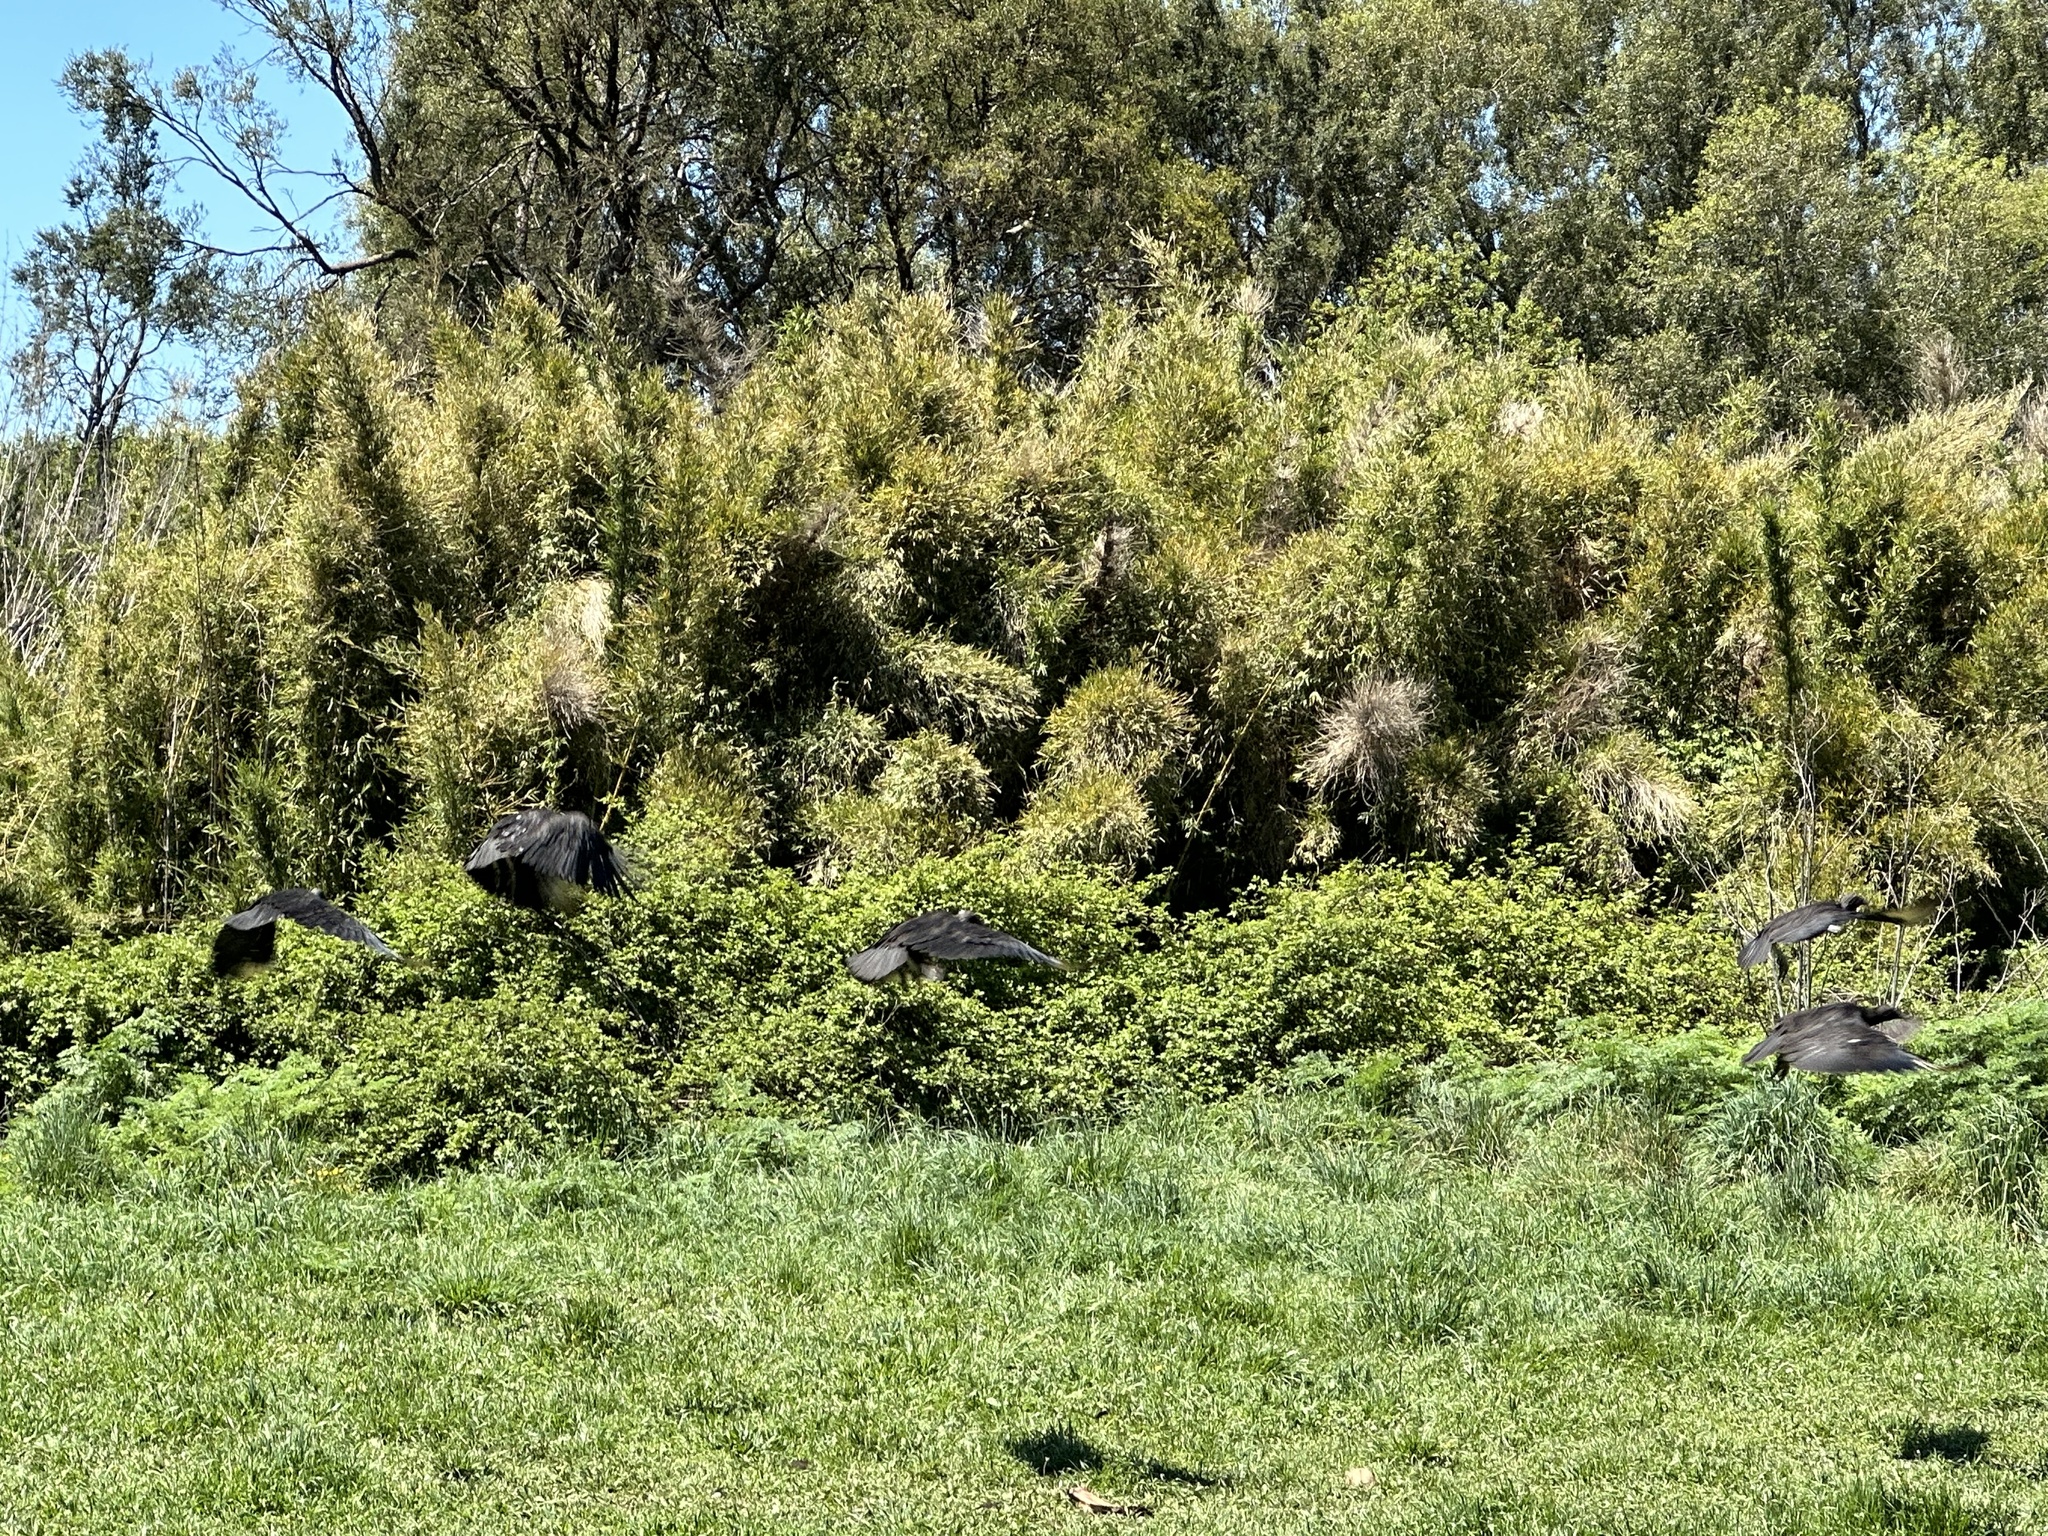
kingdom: Animalia
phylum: Chordata
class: Aves
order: Accipitriformes
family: Cathartidae
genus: Coragyps
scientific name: Coragyps atratus
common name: Black vulture
